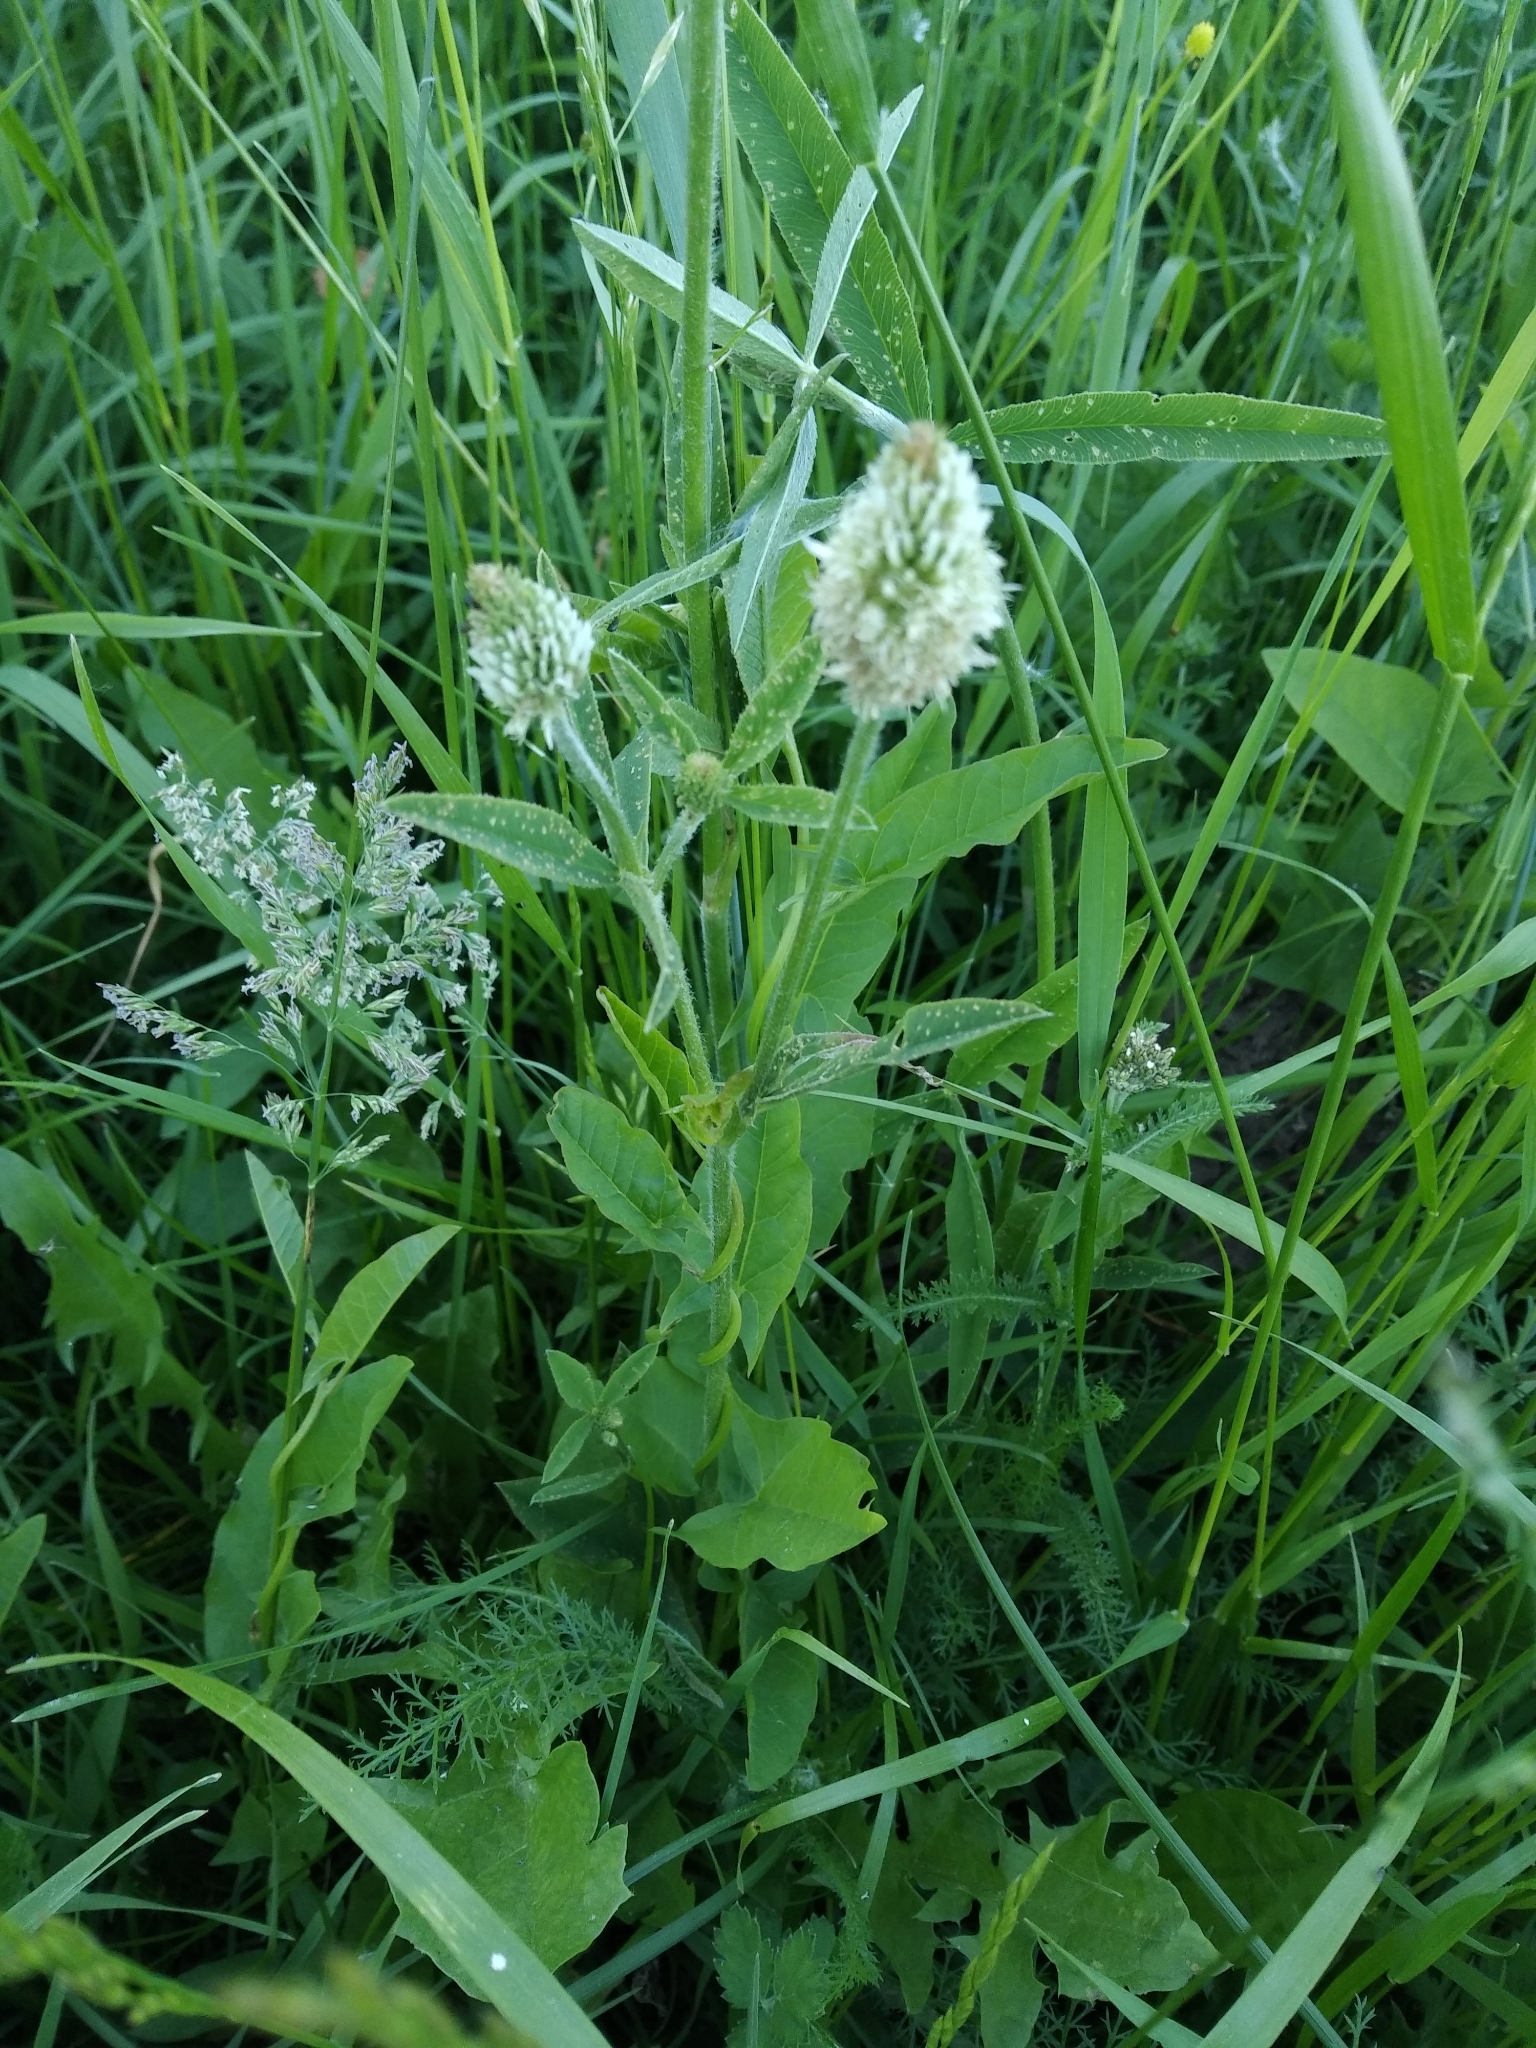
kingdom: Plantae
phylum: Tracheophyta
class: Magnoliopsida
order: Fabales
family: Fabaceae
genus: Trifolium
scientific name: Trifolium montanum
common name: Mountain clover
